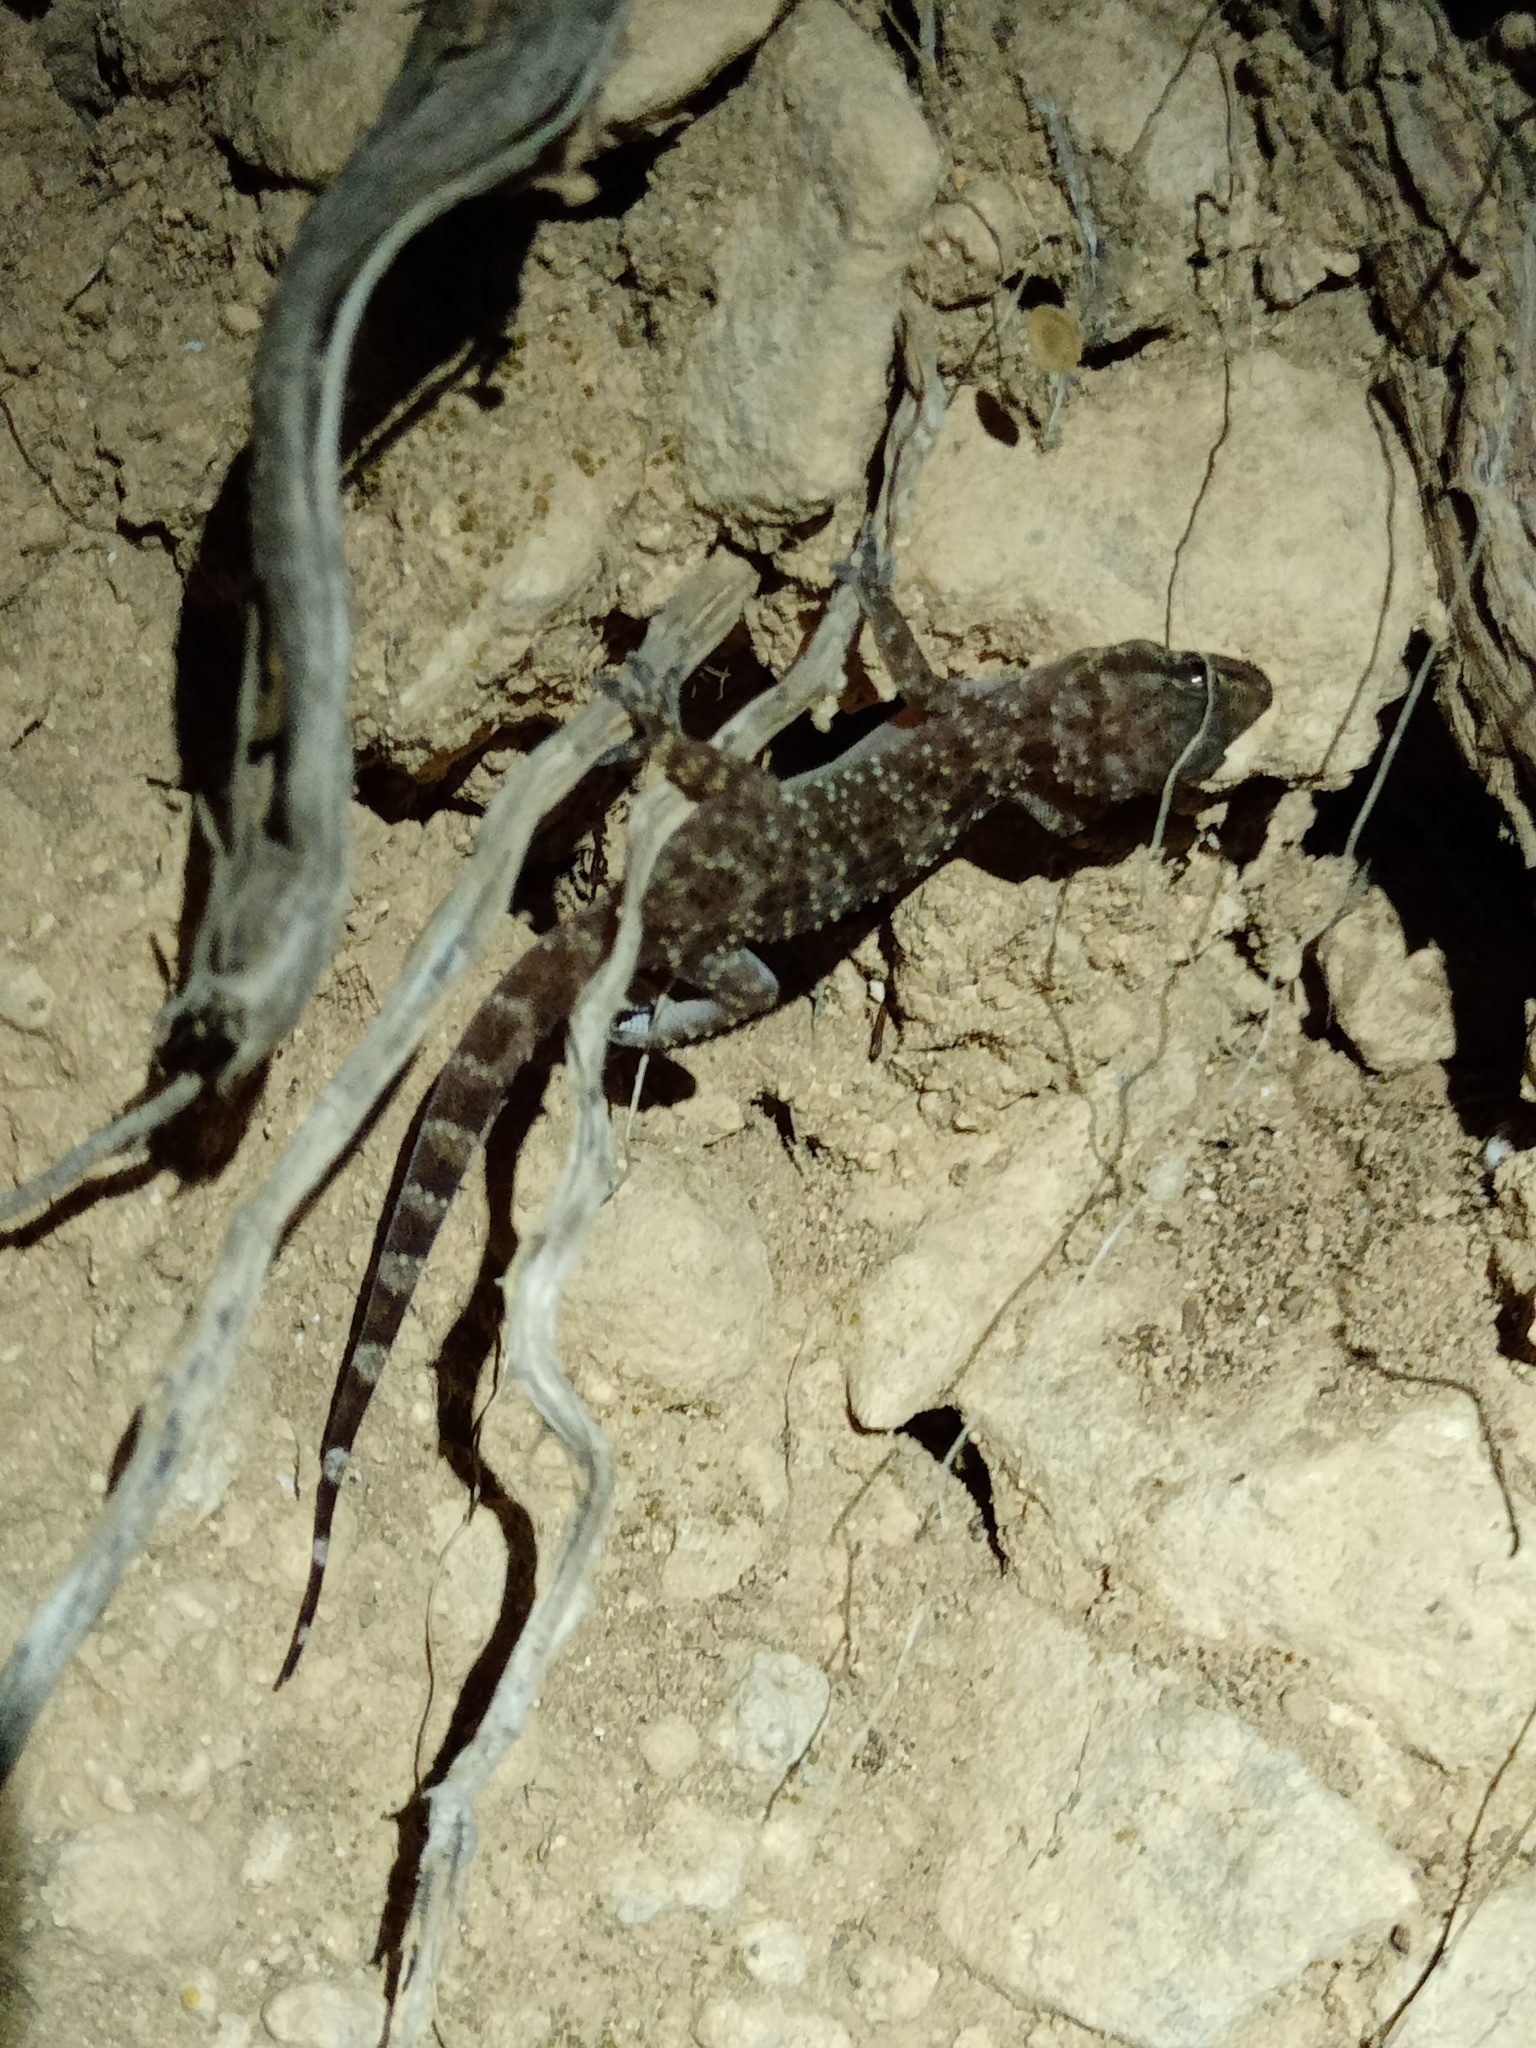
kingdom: Animalia
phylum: Chordata
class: Squamata
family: Gekkonidae
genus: Hemidactylus
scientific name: Hemidactylus turcicus
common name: Turkish gecko
